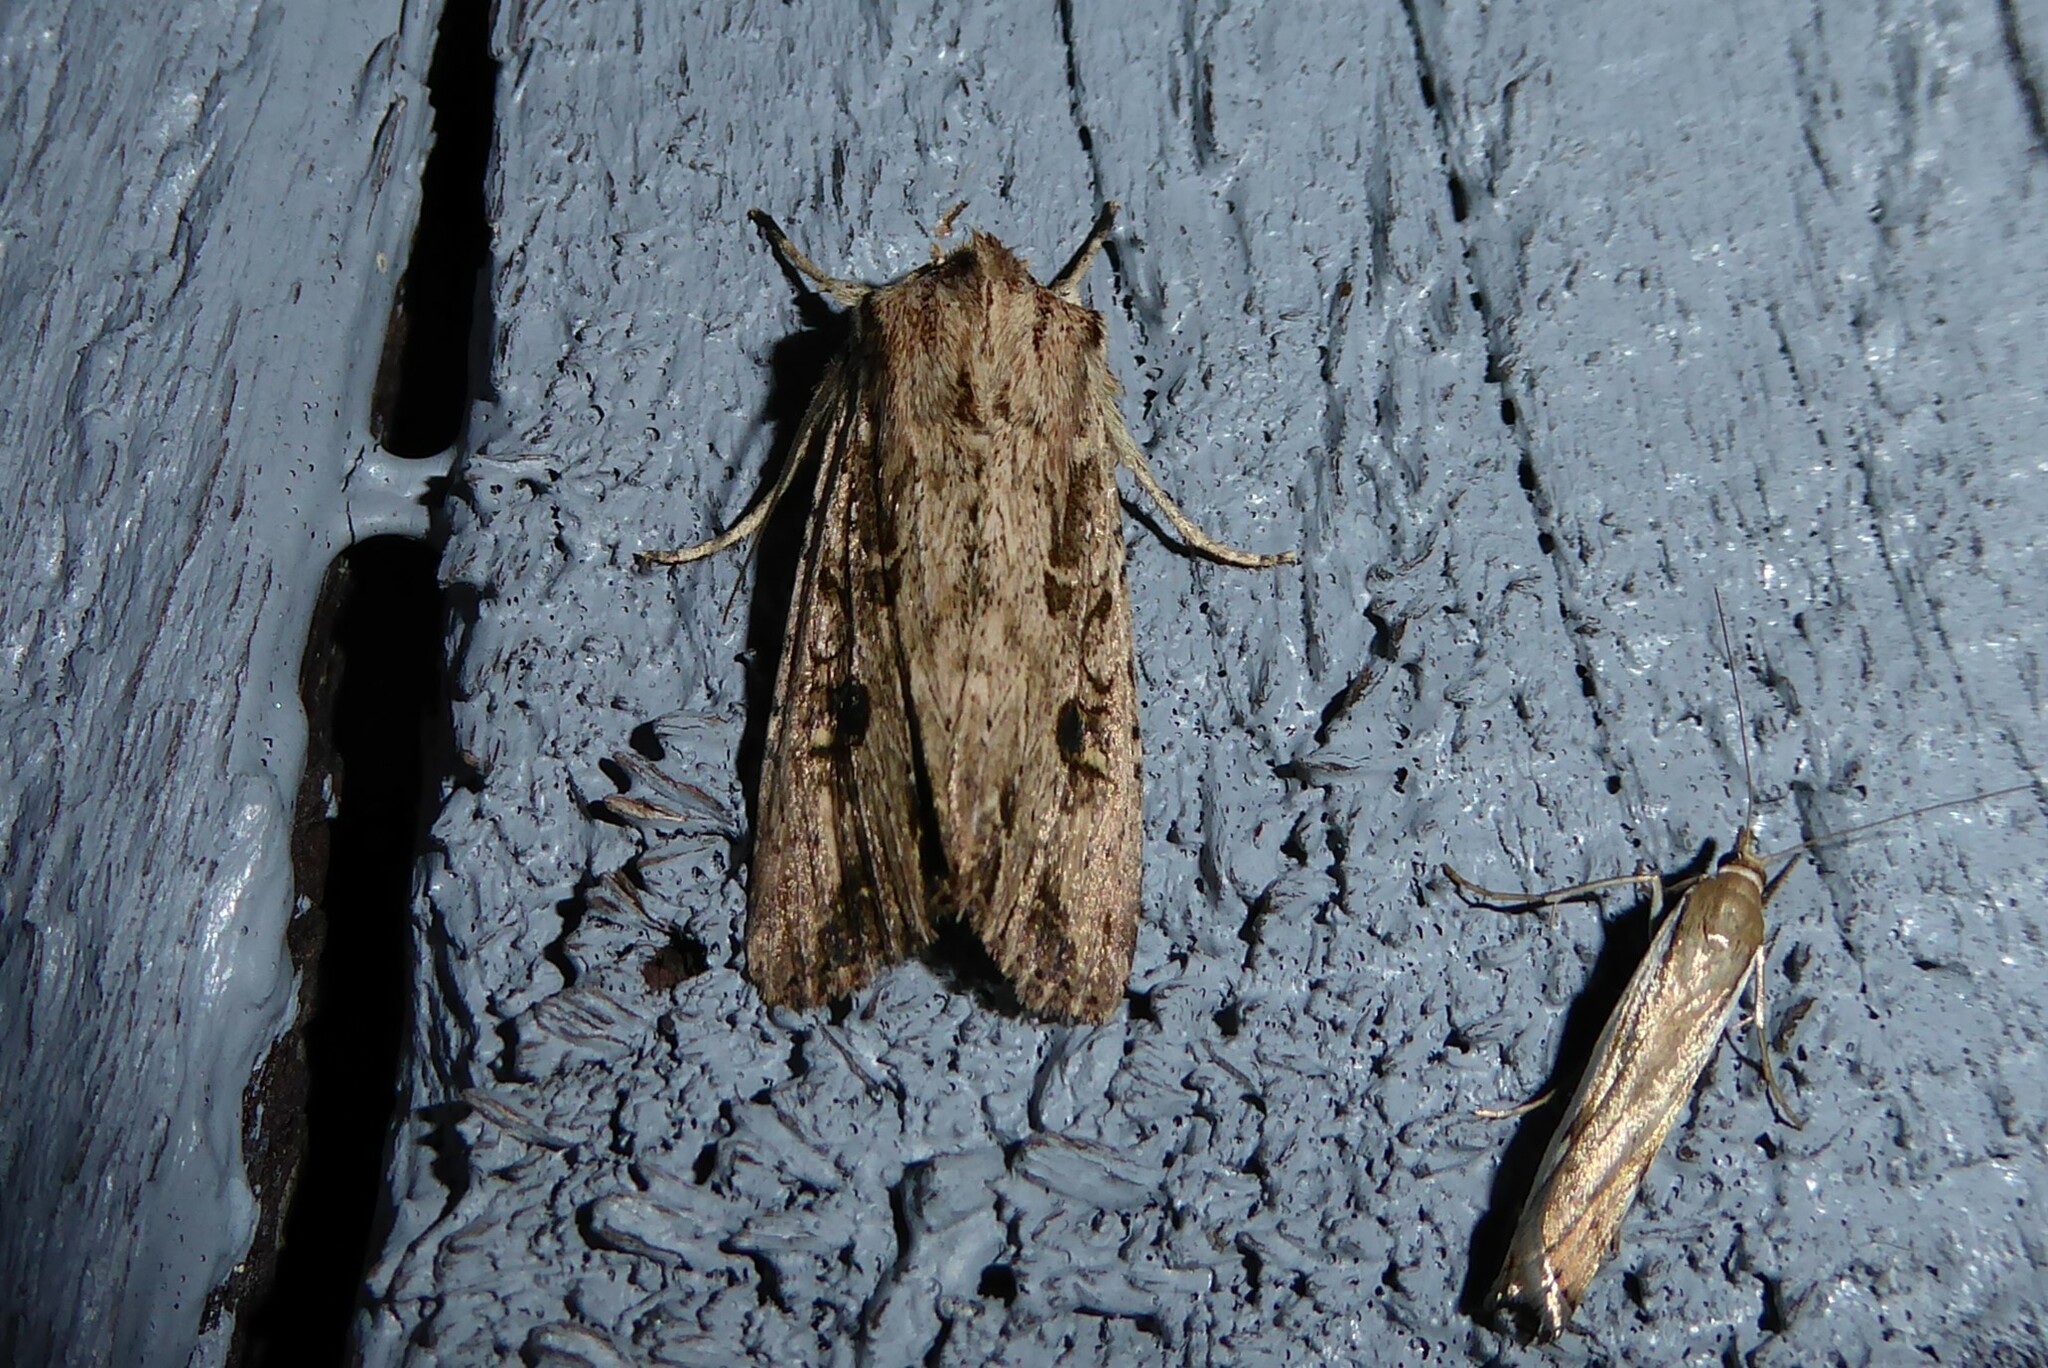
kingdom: Animalia
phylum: Arthropoda
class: Insecta
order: Lepidoptera
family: Noctuidae
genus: Ichneutica
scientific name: Ichneutica lignana
